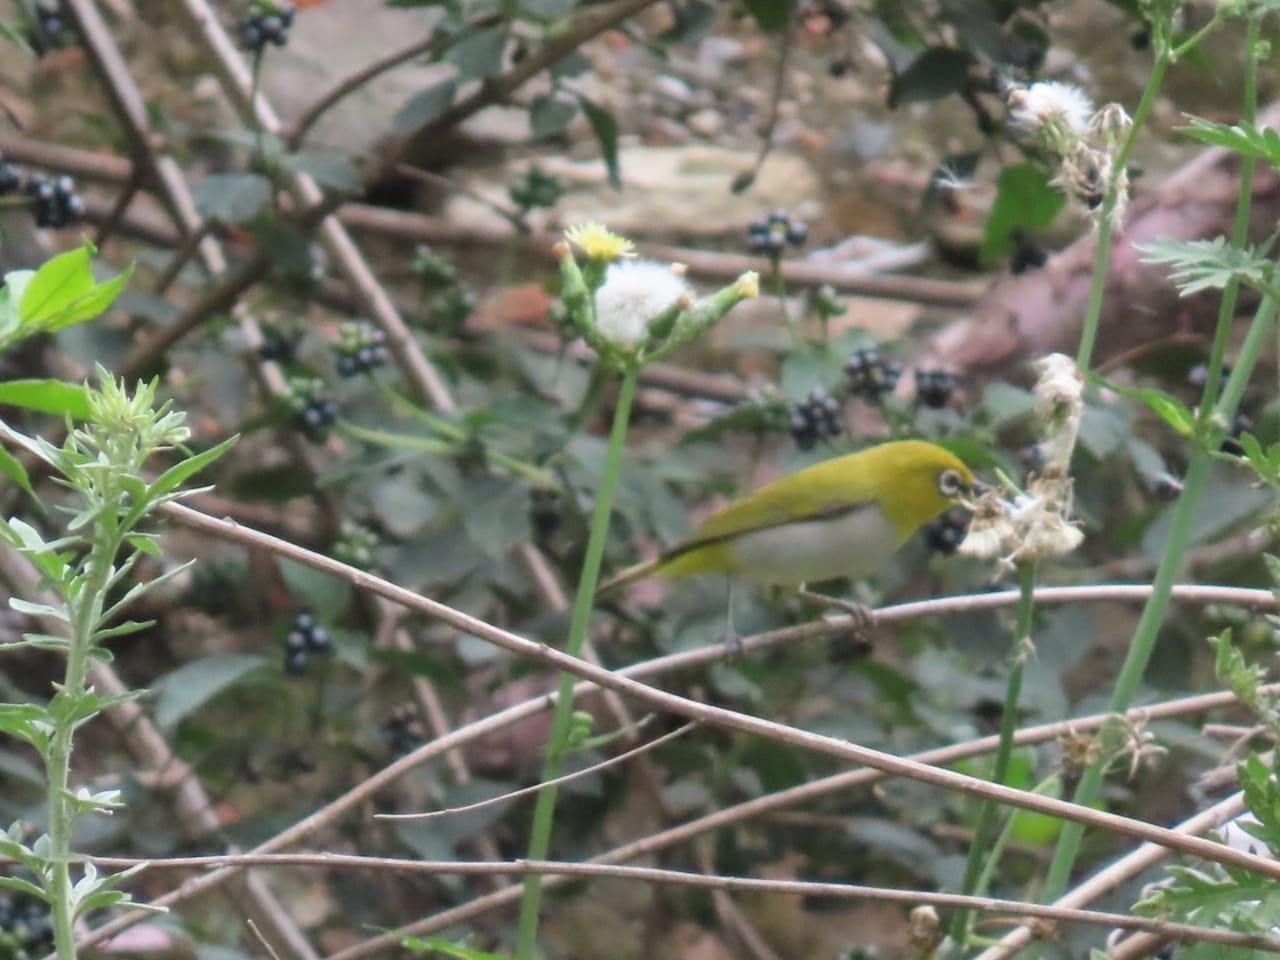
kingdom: Animalia
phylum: Chordata
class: Aves
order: Passeriformes
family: Zosteropidae
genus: Zosterops
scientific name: Zosterops palpebrosus
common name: Oriental white-eye
